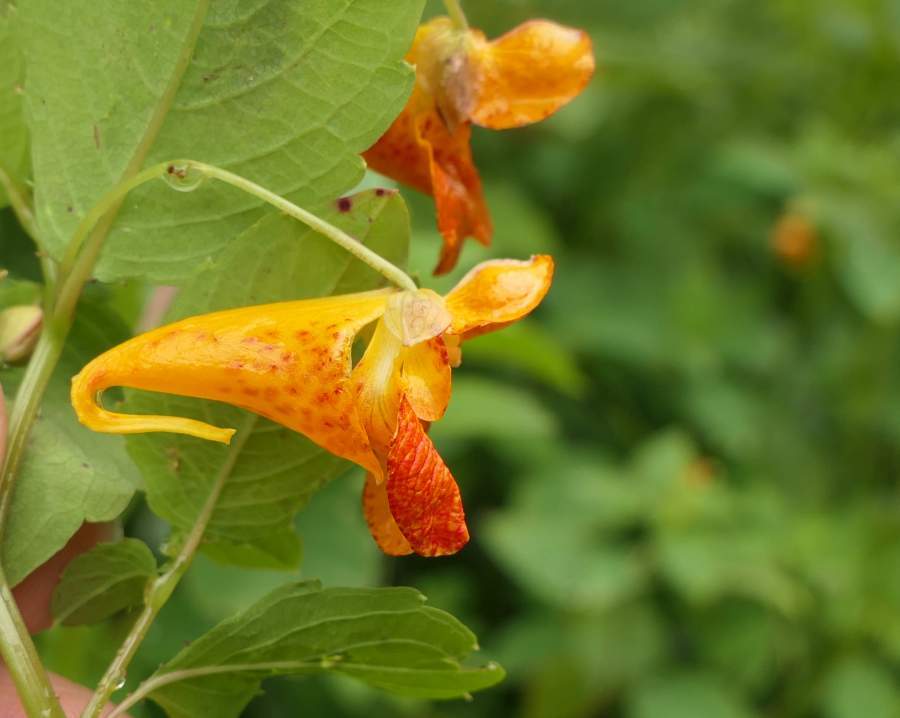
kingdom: Plantae
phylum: Tracheophyta
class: Magnoliopsida
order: Ericales
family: Balsaminaceae
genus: Impatiens
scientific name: Impatiens capensis
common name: Orange balsam
